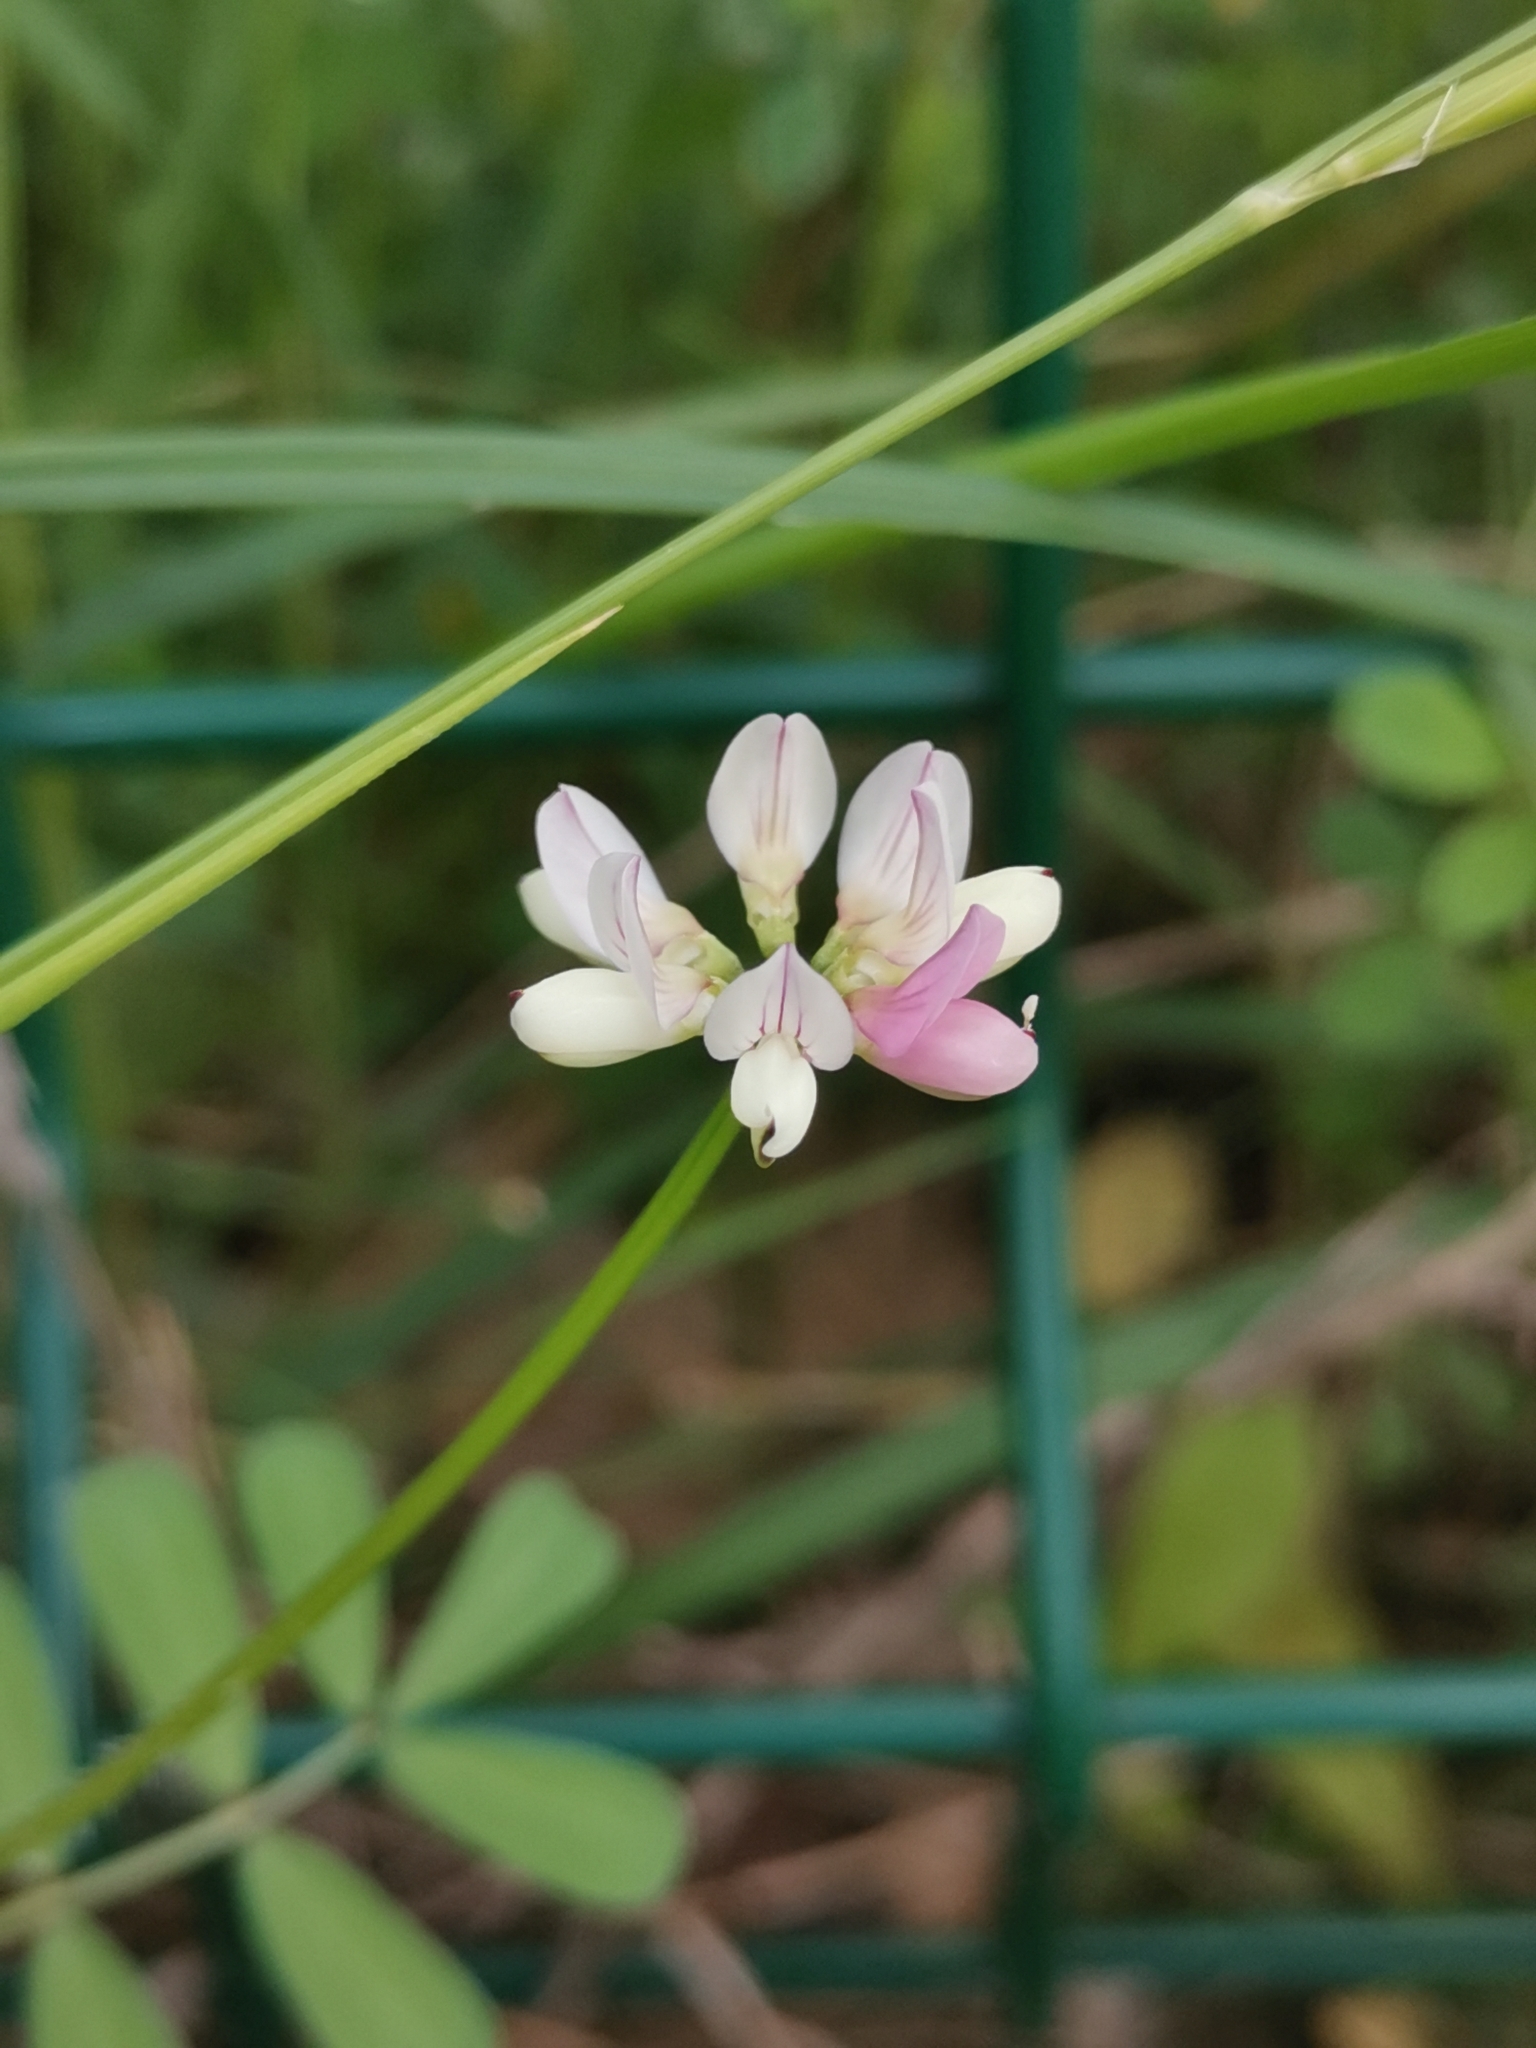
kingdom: Plantae
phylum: Tracheophyta
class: Magnoliopsida
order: Fabales
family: Fabaceae
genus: Coronilla
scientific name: Coronilla cretica
